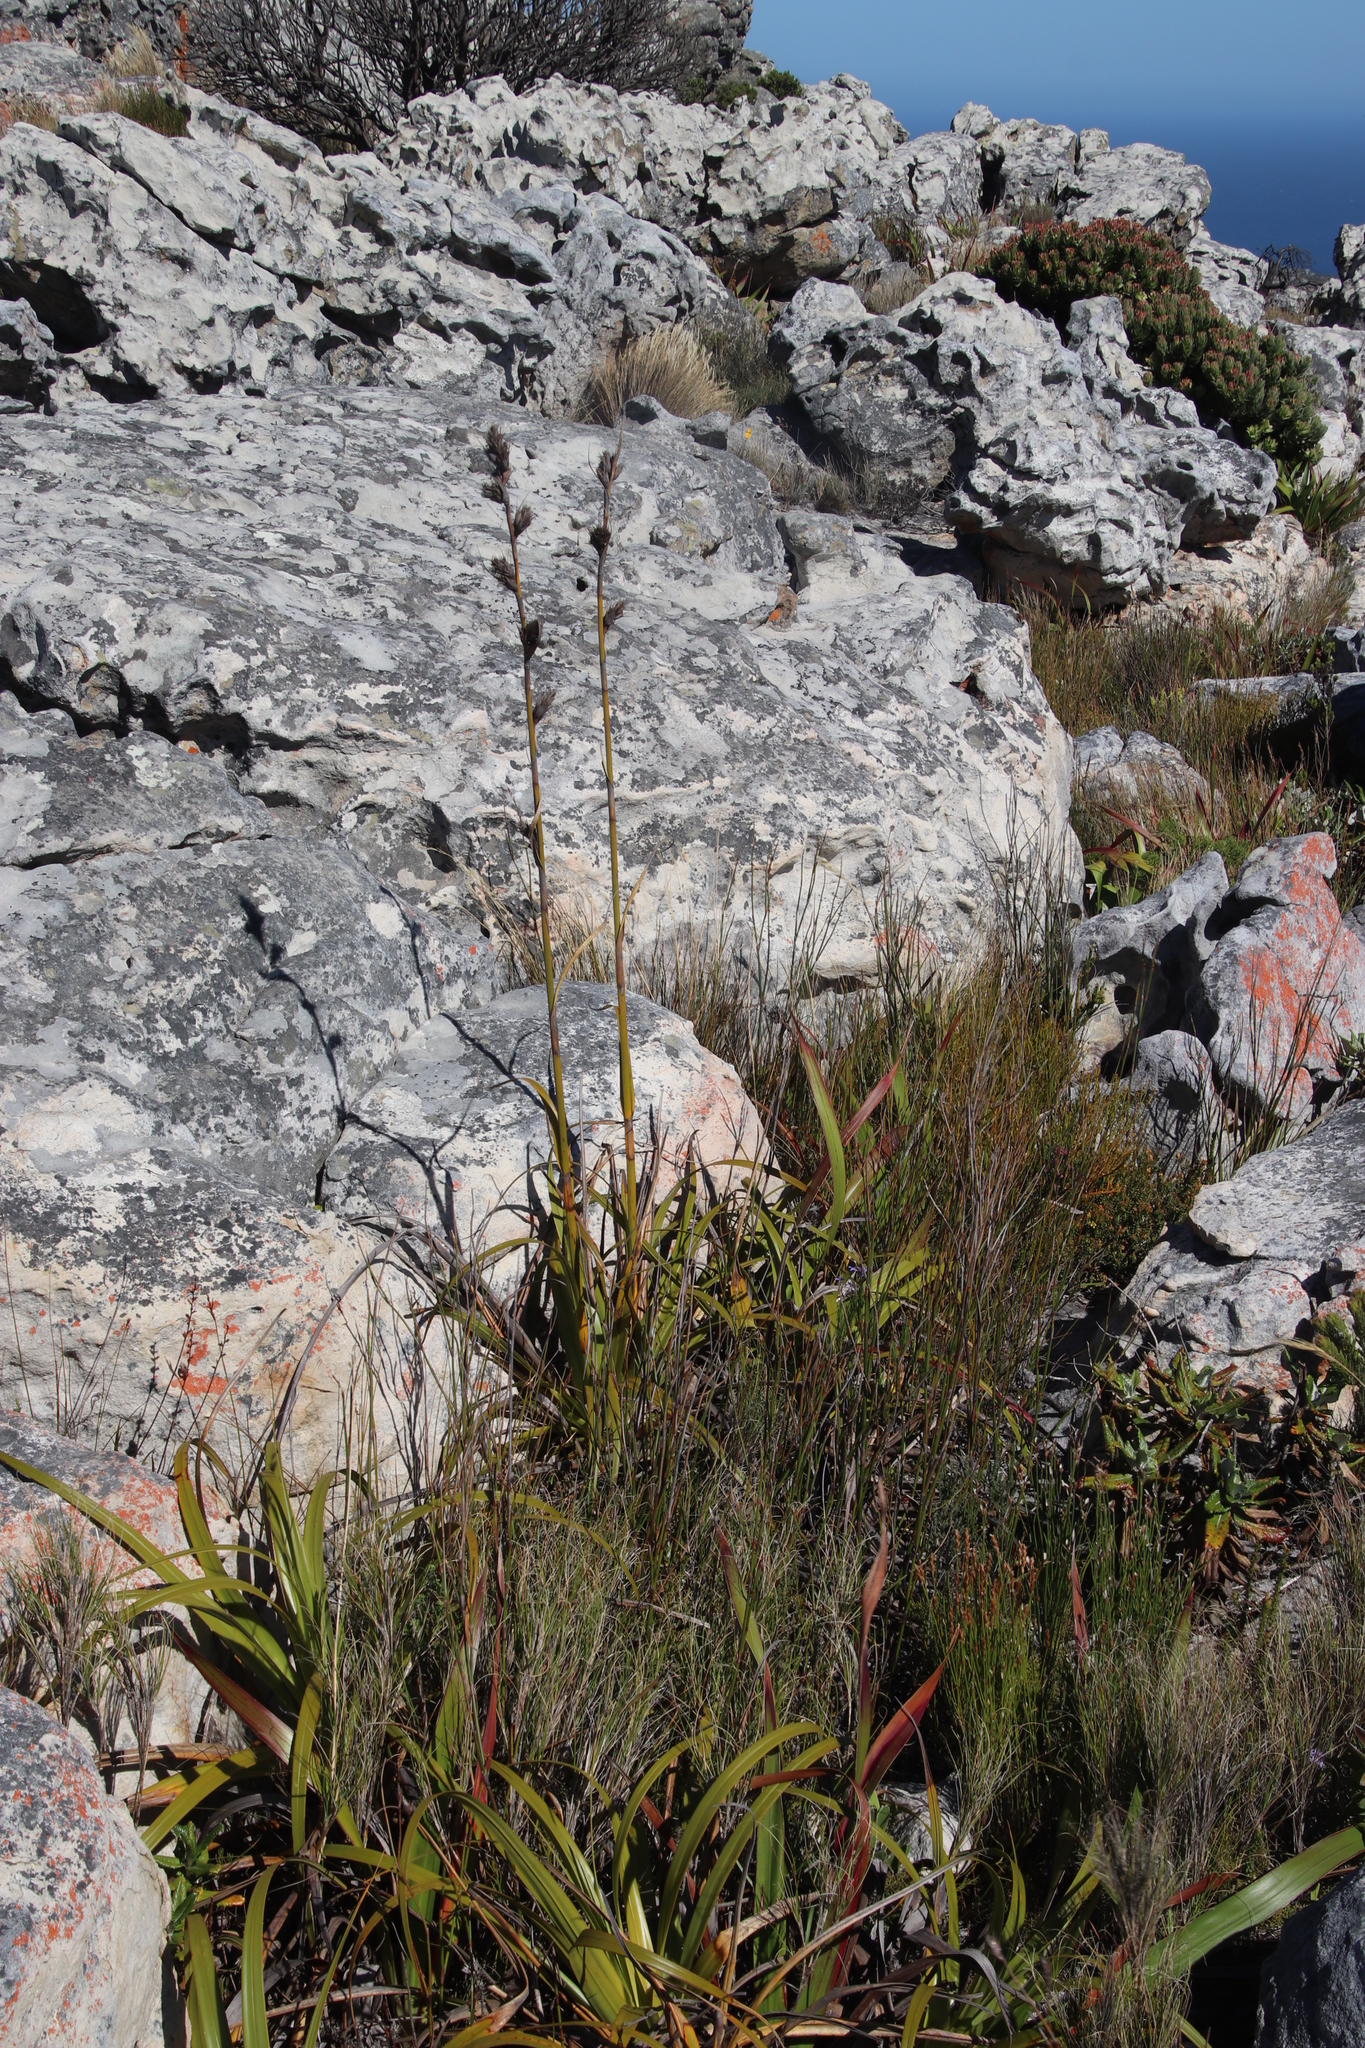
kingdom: Plantae
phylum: Tracheophyta
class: Liliopsida
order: Poales
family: Cyperaceae
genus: Tetraria
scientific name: Tetraria thermalis
